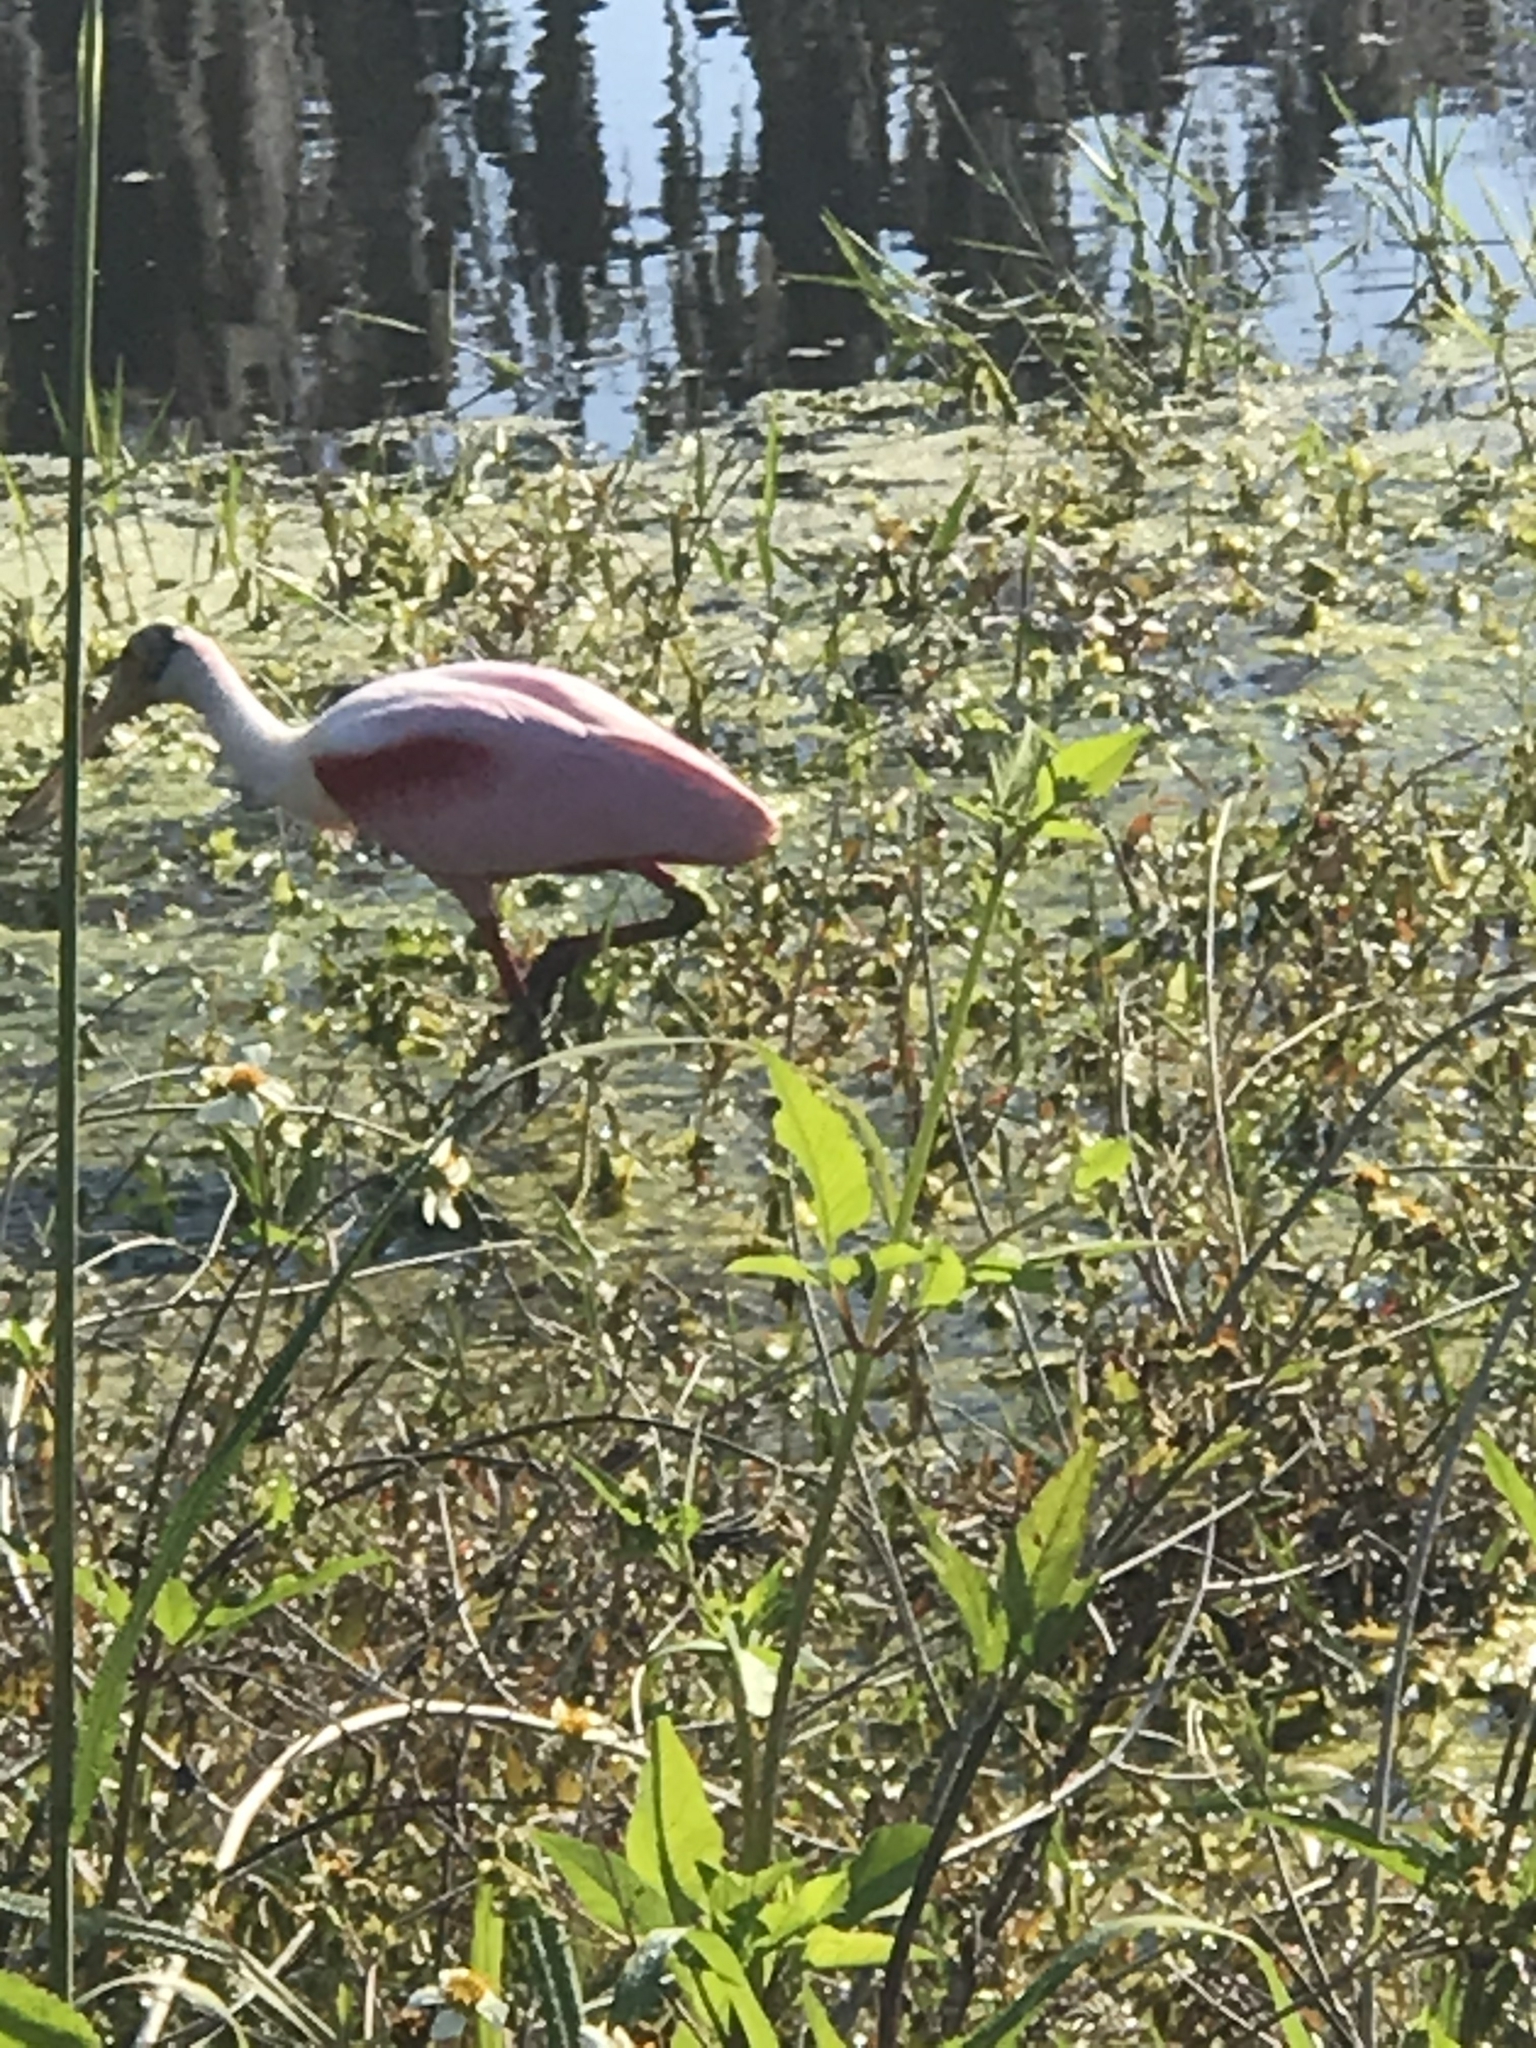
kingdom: Animalia
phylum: Chordata
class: Aves
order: Pelecaniformes
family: Threskiornithidae
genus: Platalea
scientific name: Platalea ajaja
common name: Roseate spoonbill
